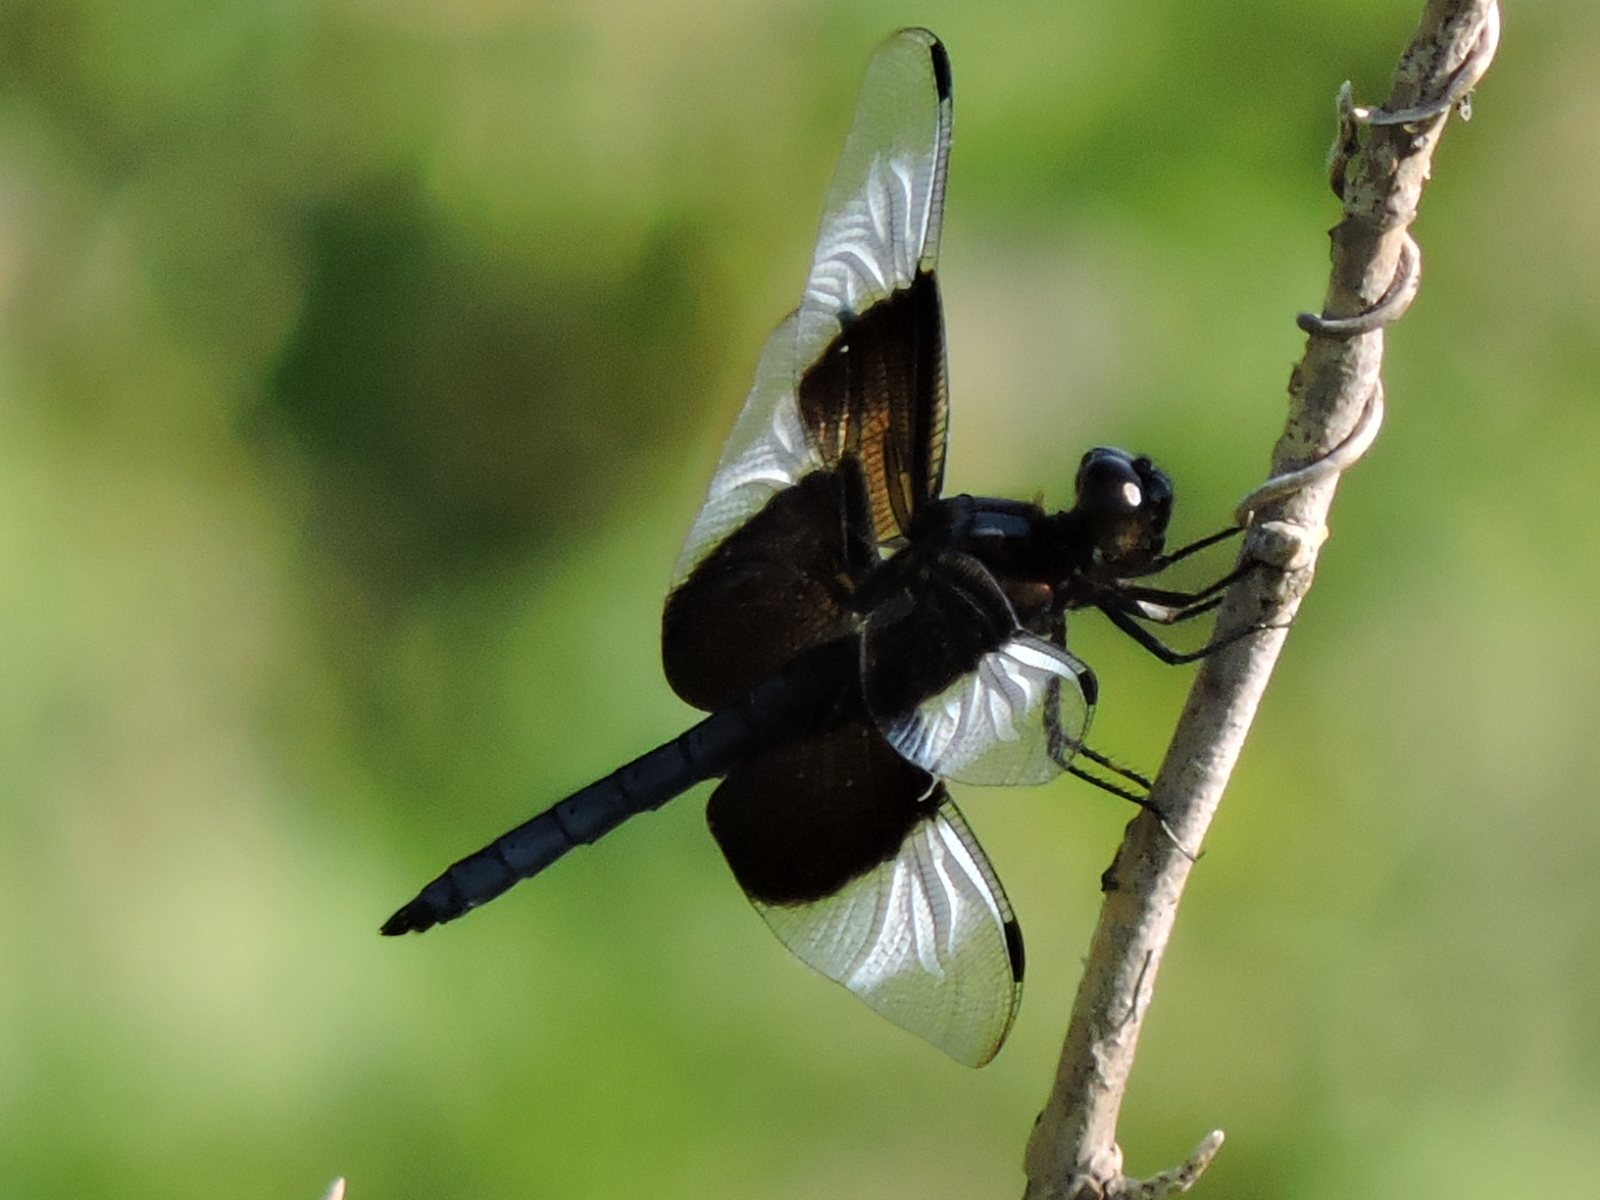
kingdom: Animalia
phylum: Arthropoda
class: Insecta
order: Odonata
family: Libellulidae
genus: Libellula
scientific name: Libellula luctuosa
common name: Widow skimmer
